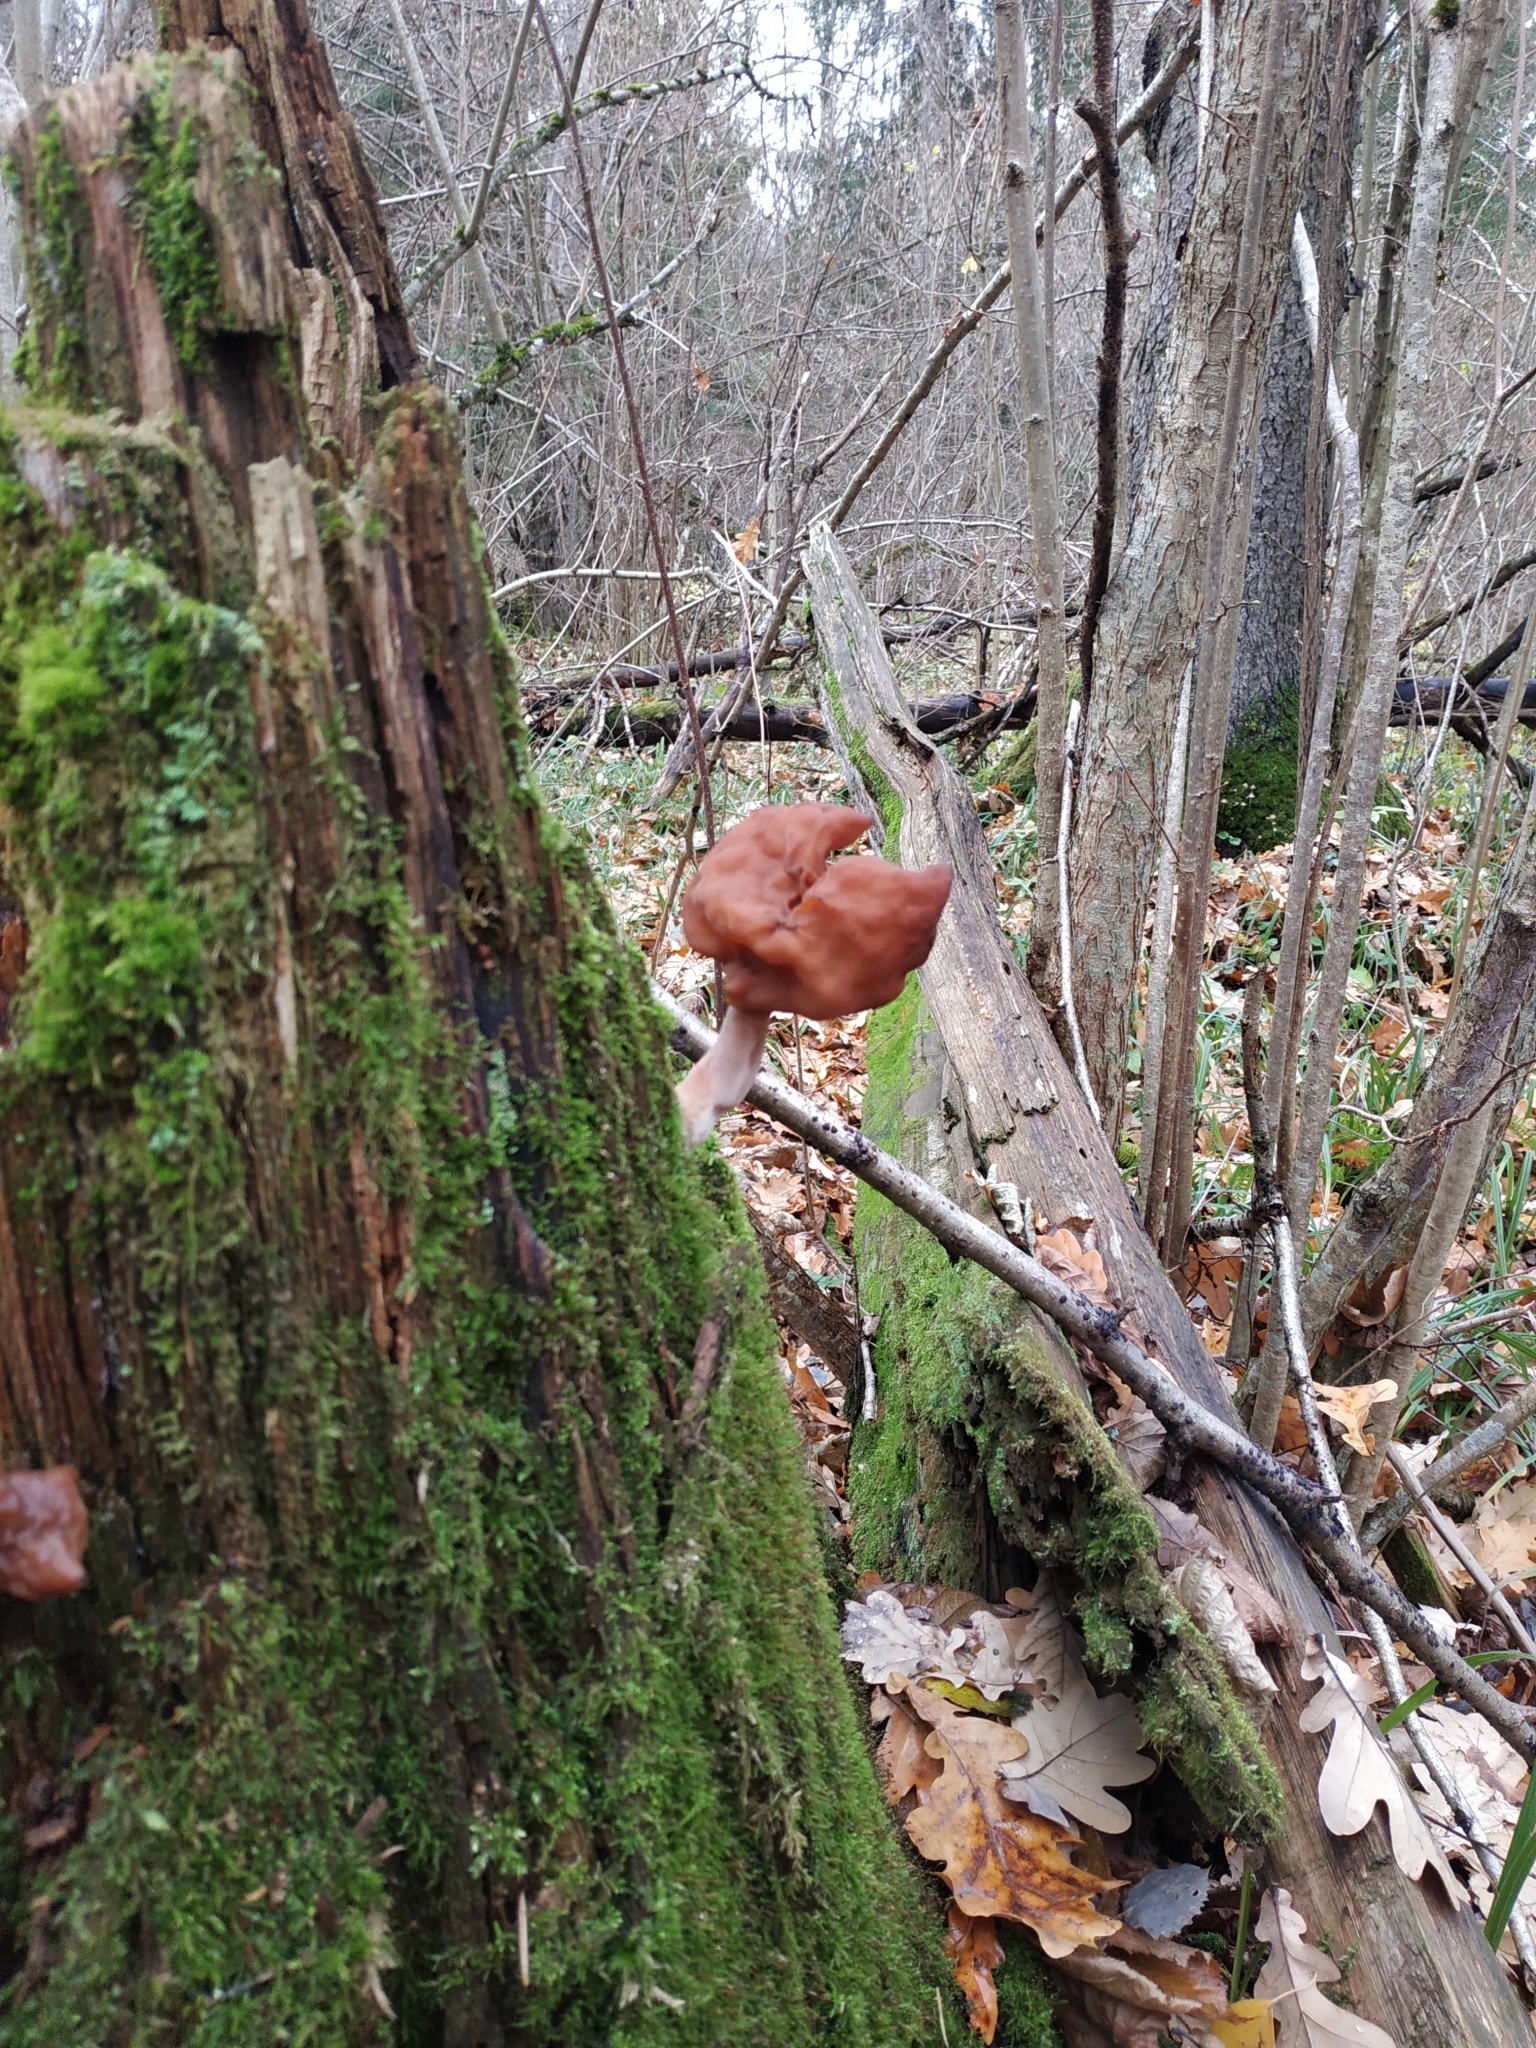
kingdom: Fungi
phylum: Ascomycota
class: Pezizomycetes
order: Pezizales
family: Discinaceae
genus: Gyromitra
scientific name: Gyromitra infula
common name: Pouched false morel
